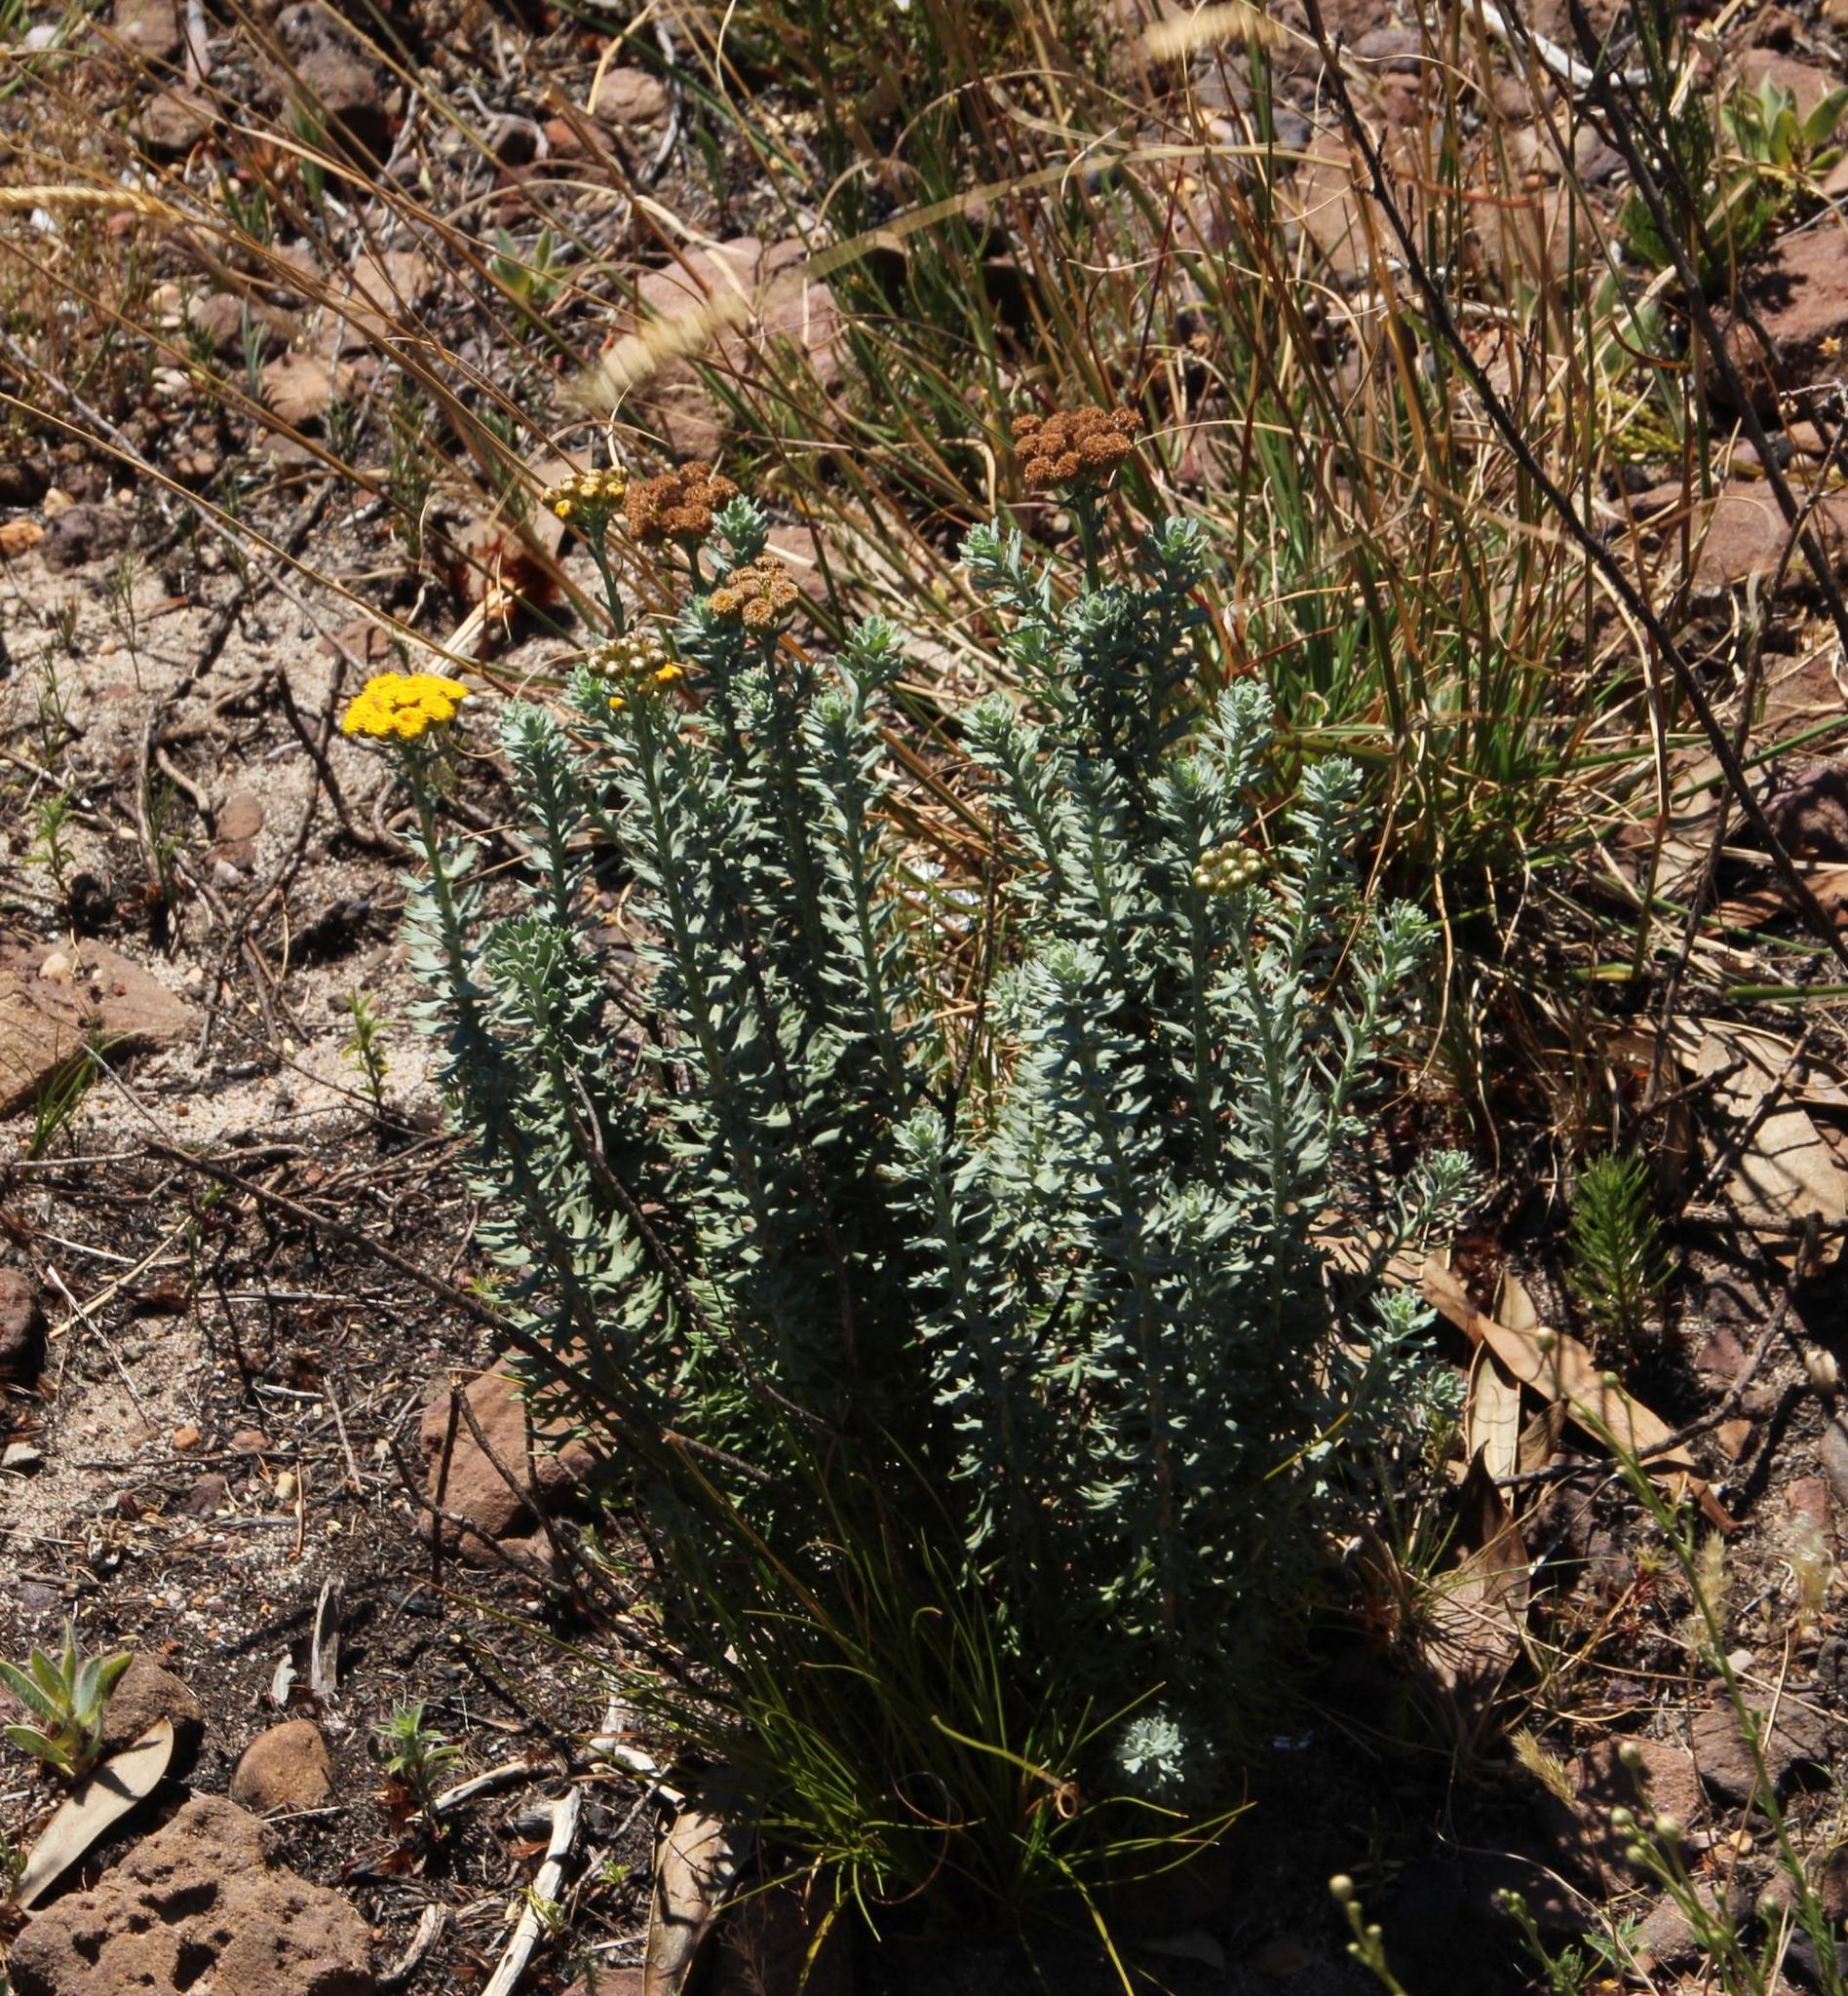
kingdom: Plantae
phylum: Tracheophyta
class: Magnoliopsida
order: Asterales
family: Asteraceae
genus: Athanasia
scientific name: Athanasia trifurcata
